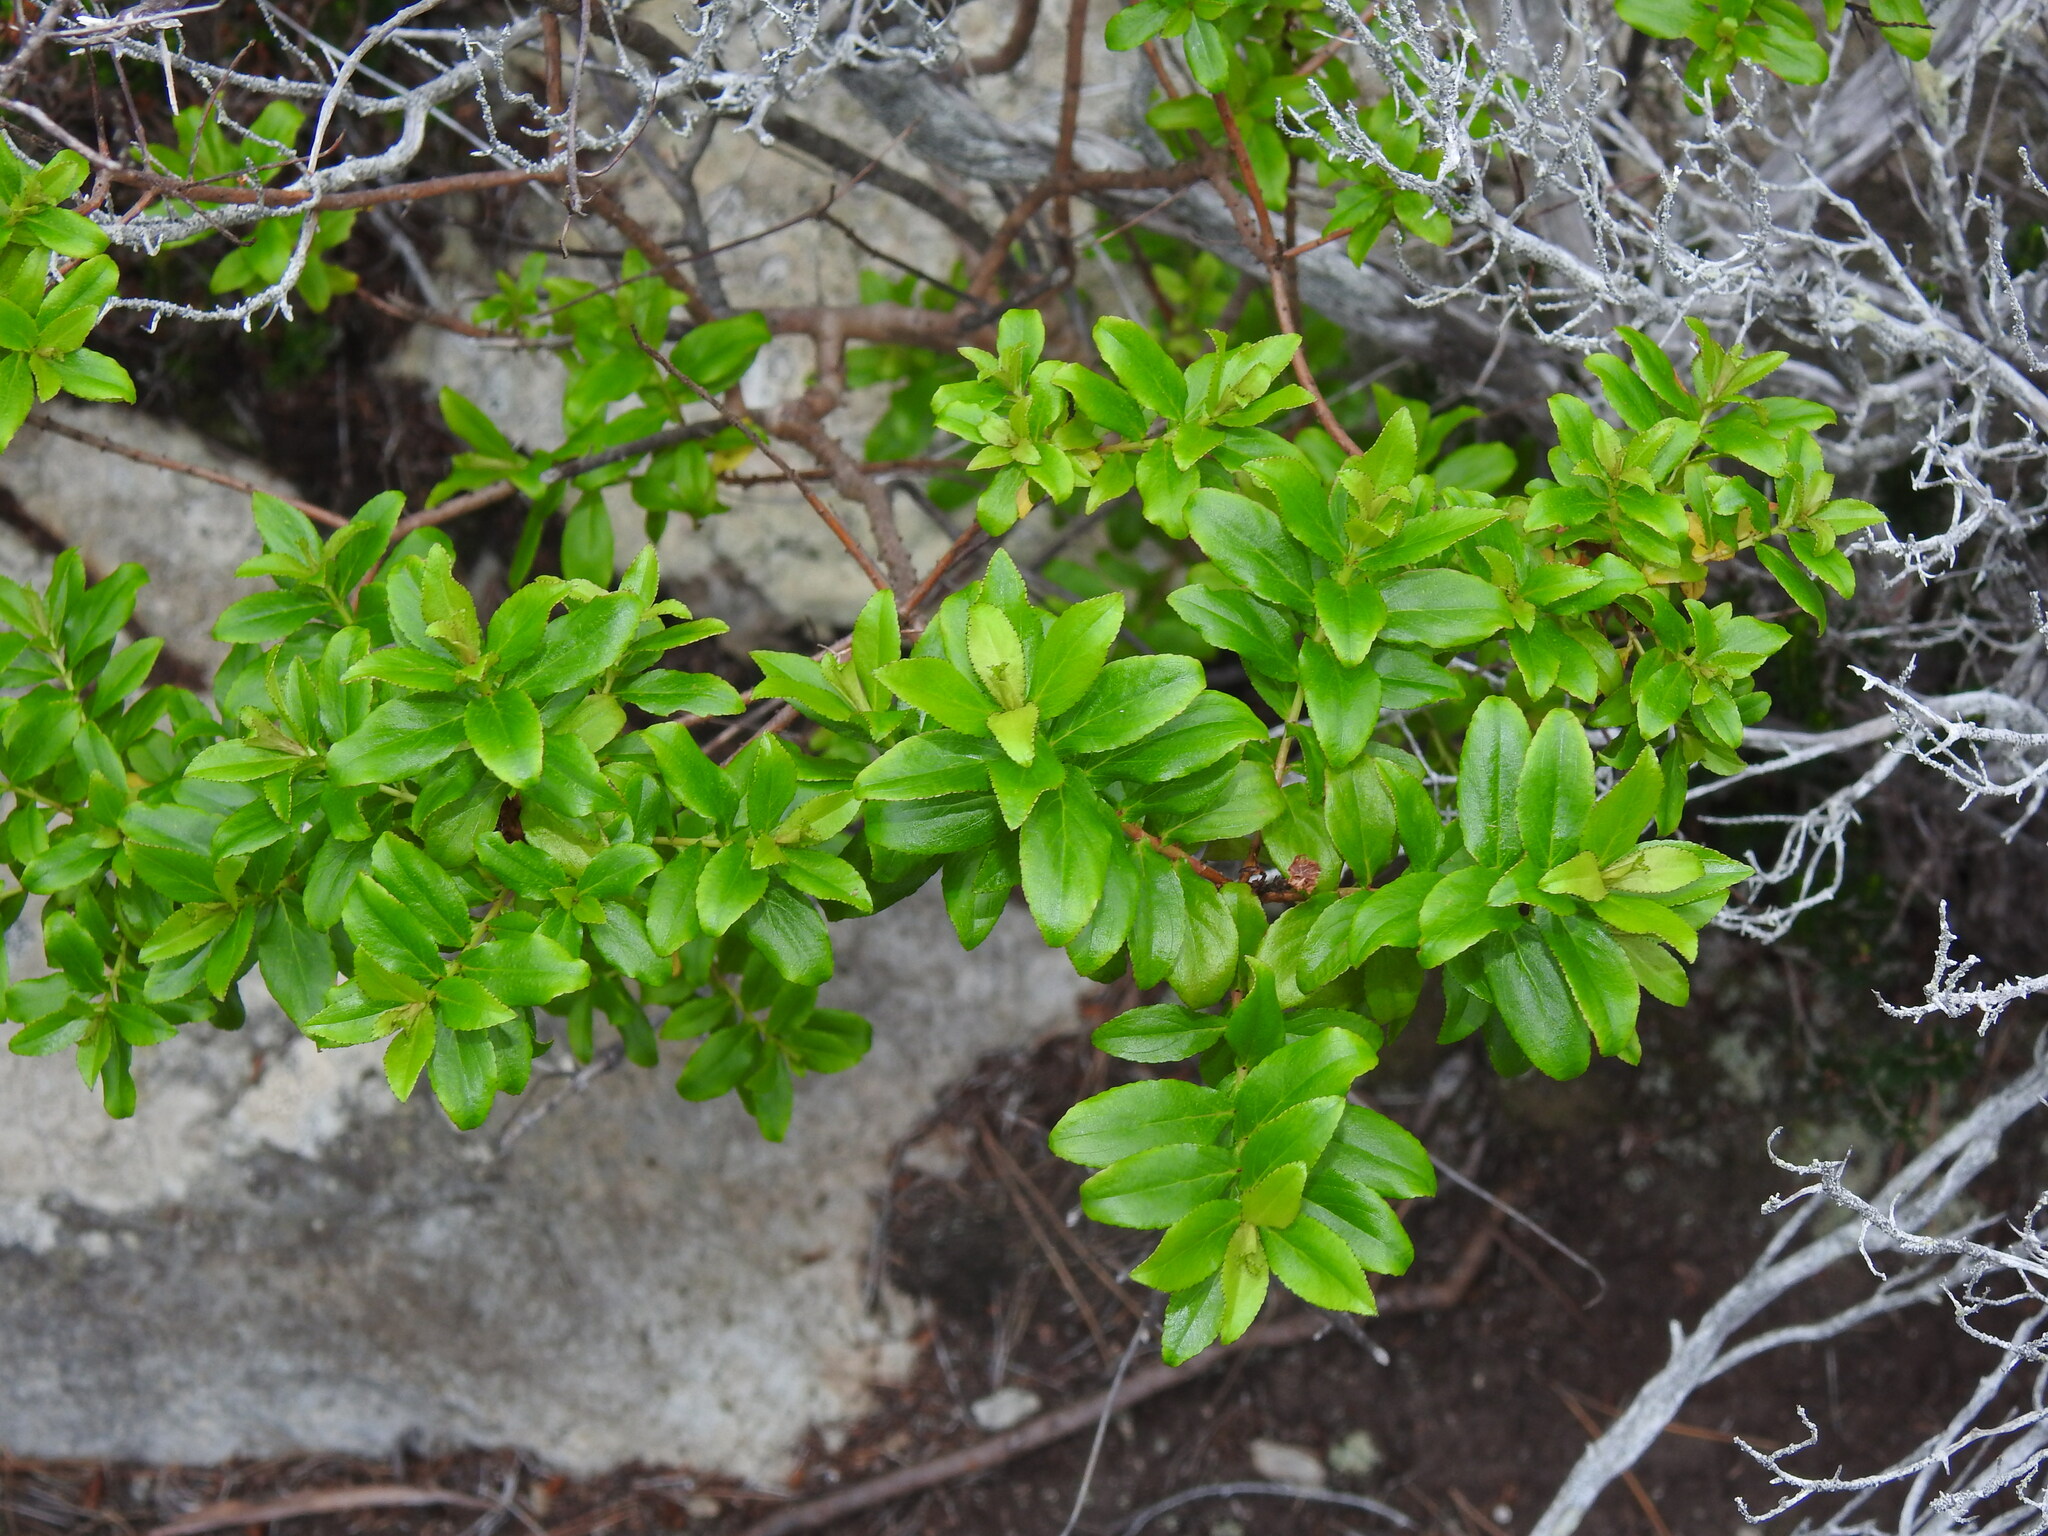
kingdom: Plantae
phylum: Tracheophyta
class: Magnoliopsida
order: Malpighiales
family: Hypericaceae
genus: Hypericum
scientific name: Hypericum glandulosum
